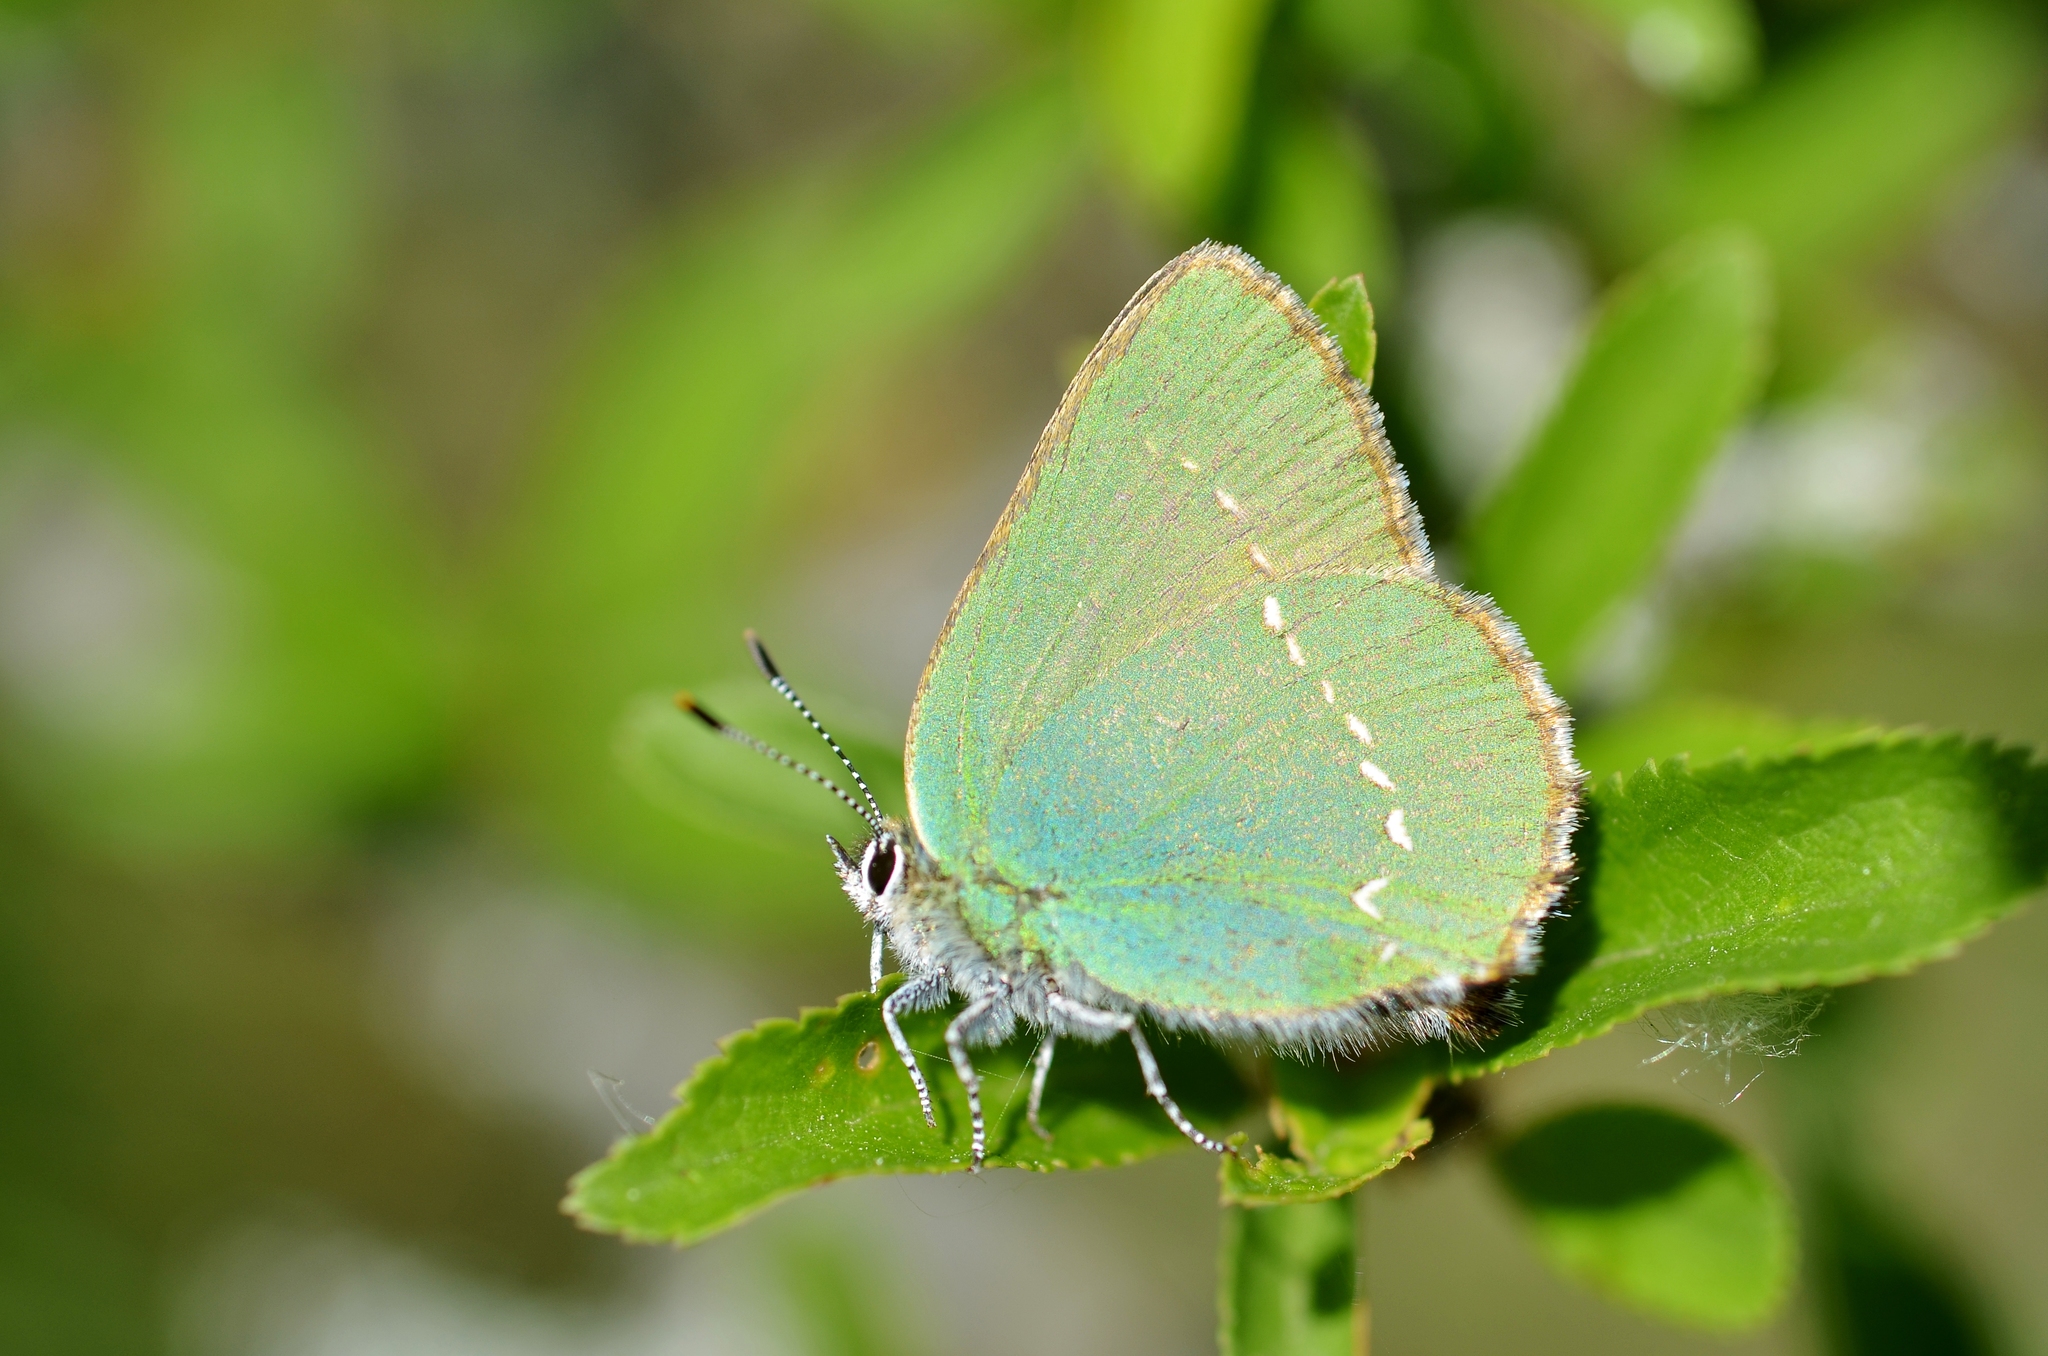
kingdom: Animalia
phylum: Arthropoda
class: Insecta
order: Lepidoptera
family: Lycaenidae
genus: Callophrys
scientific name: Callophrys rubi
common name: Green hairstreak
